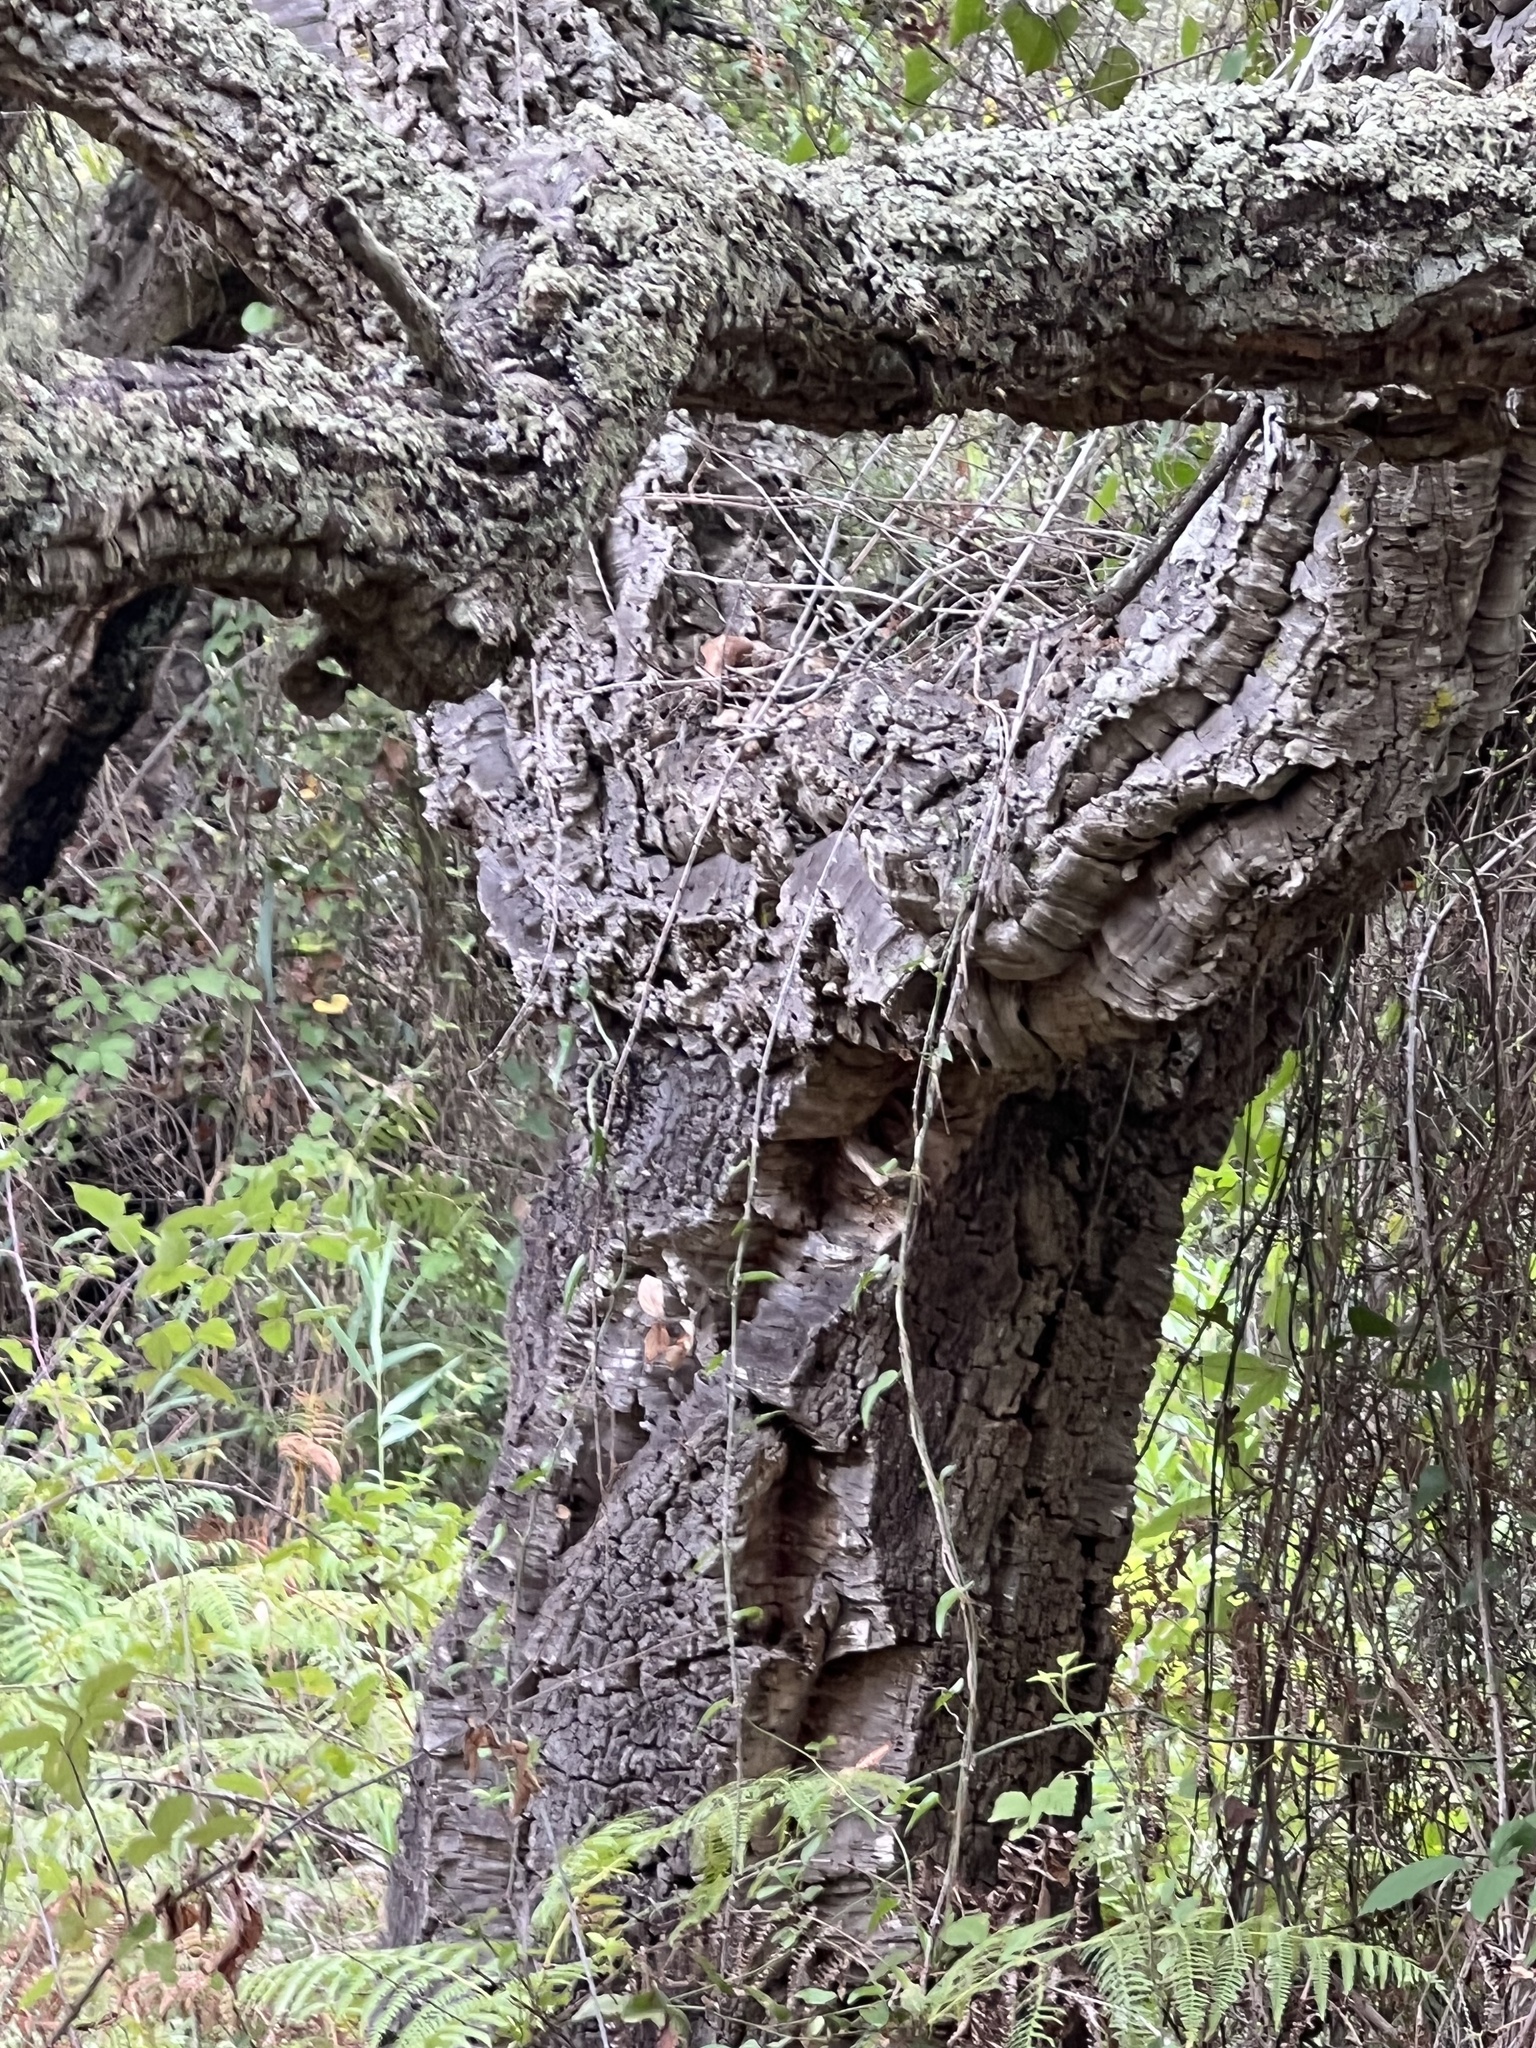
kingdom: Plantae
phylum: Tracheophyta
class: Magnoliopsida
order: Fagales
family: Fagaceae
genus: Quercus
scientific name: Quercus suber
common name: Cork oak
